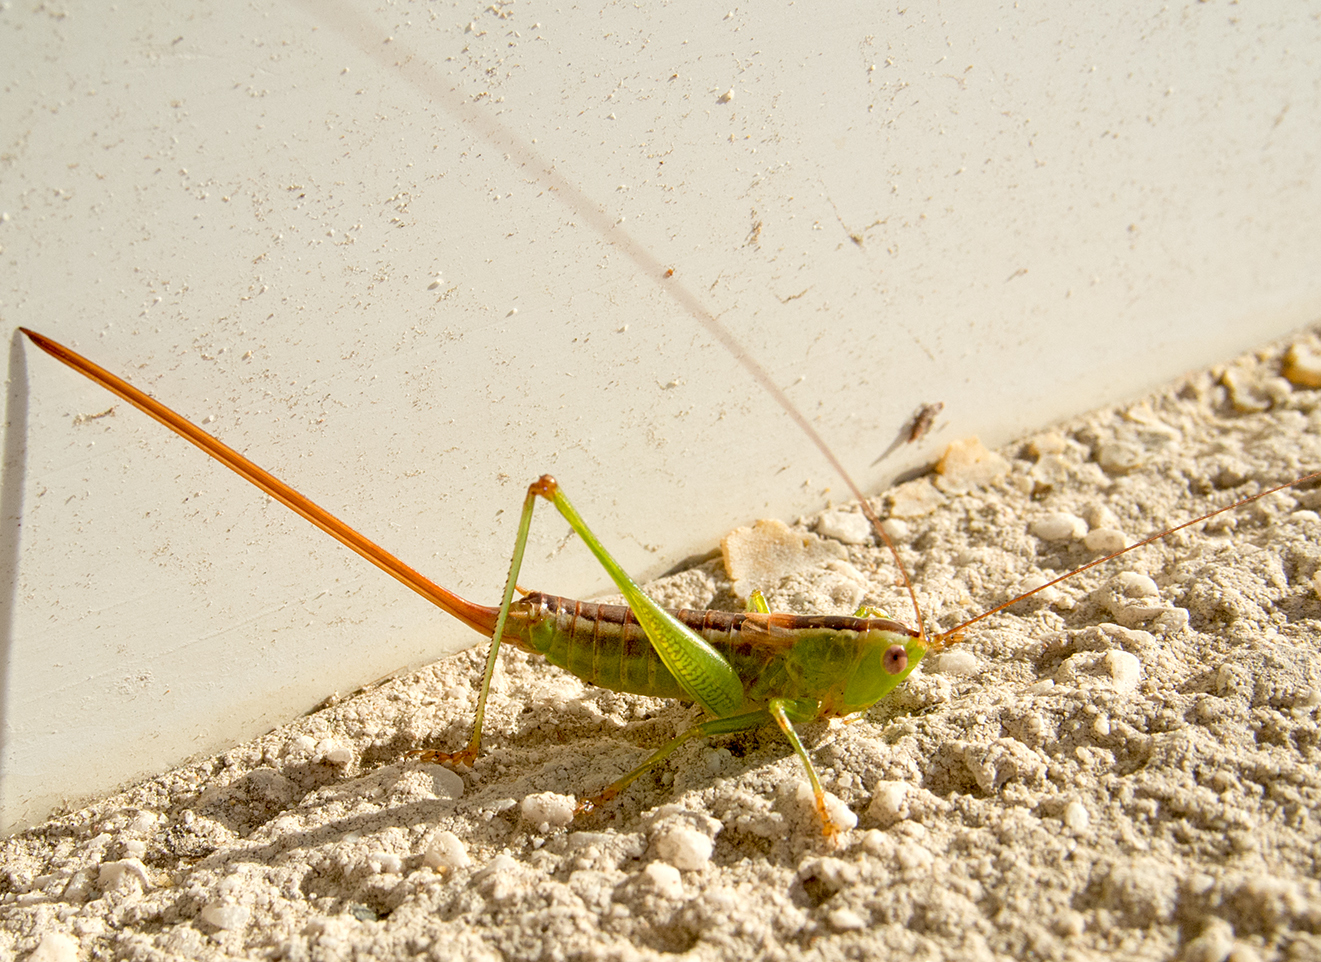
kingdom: Animalia
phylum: Arthropoda
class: Insecta
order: Orthoptera
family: Tettigoniidae
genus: Conocephalus
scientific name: Conocephalus hastatus
